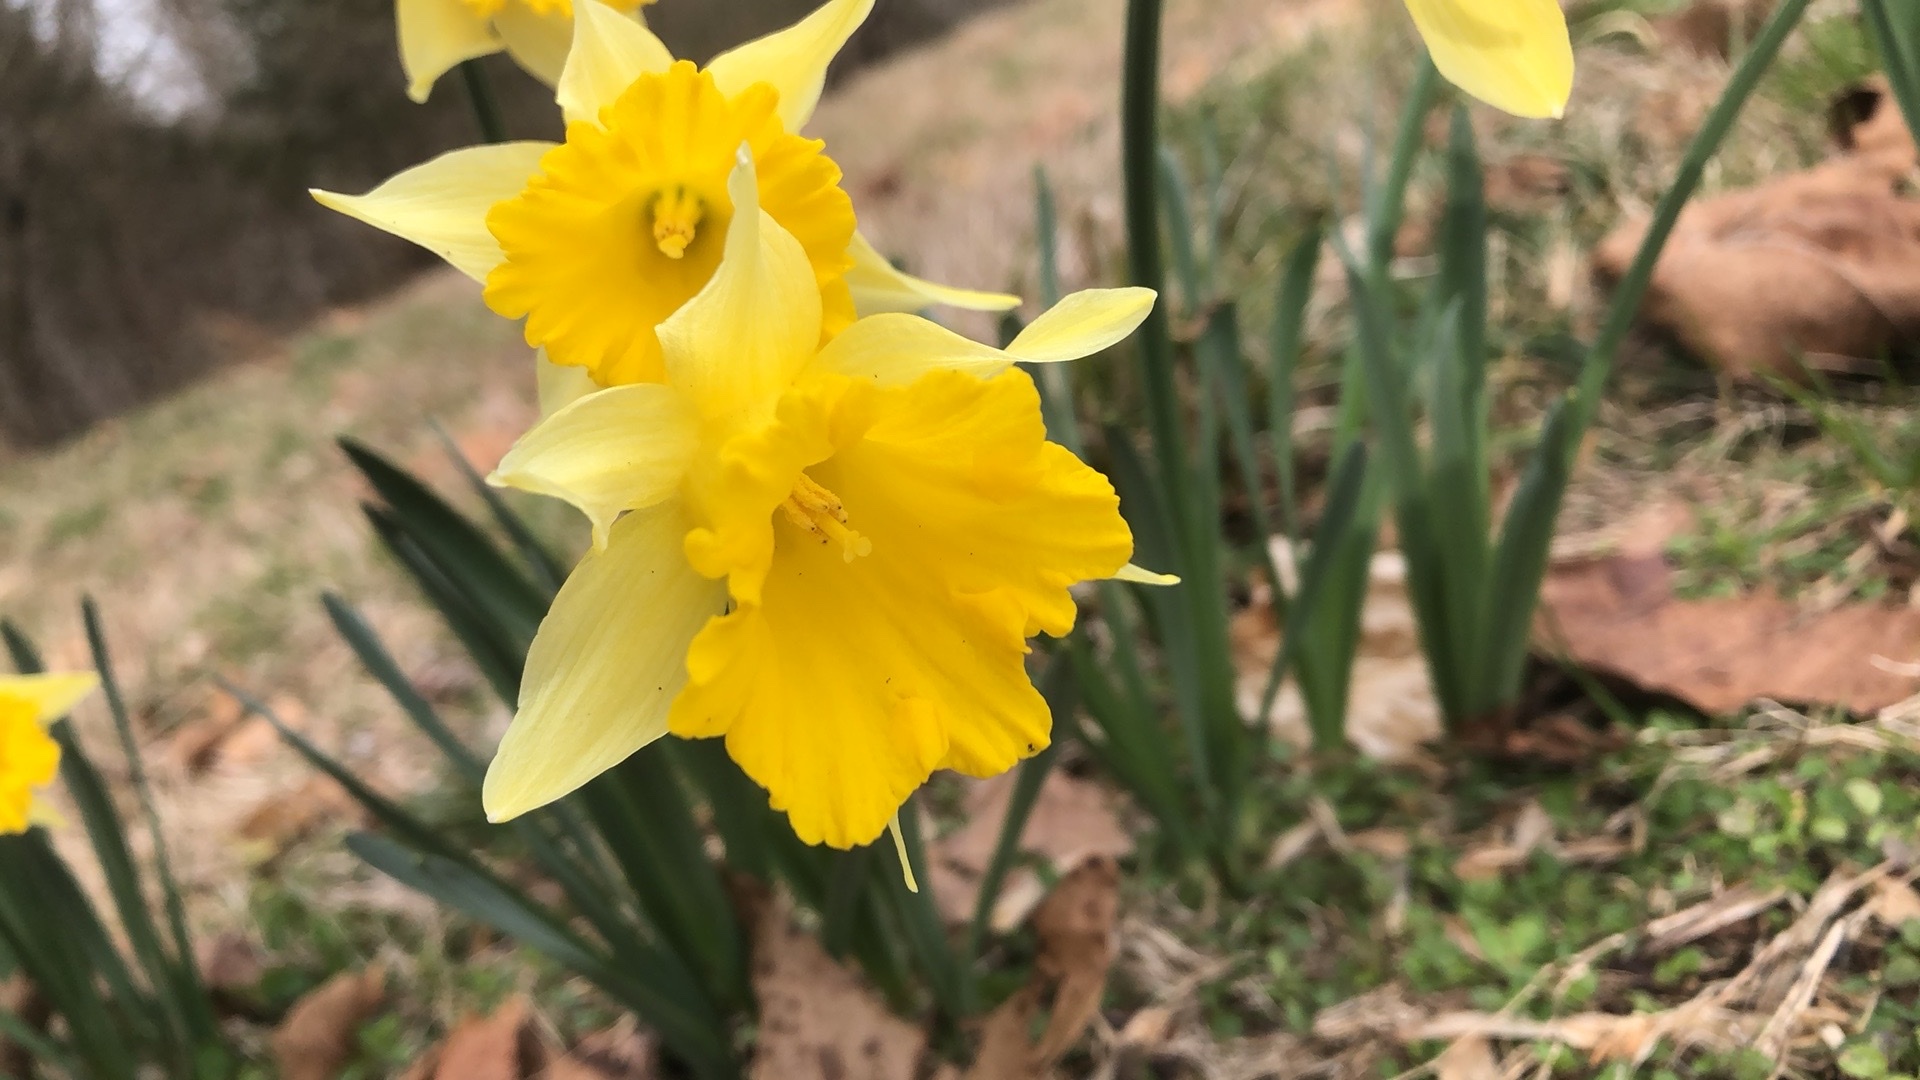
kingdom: Plantae
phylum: Tracheophyta
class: Liliopsida
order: Asparagales
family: Amaryllidaceae
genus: Narcissus
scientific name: Narcissus pseudonarcissus
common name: Daffodil
